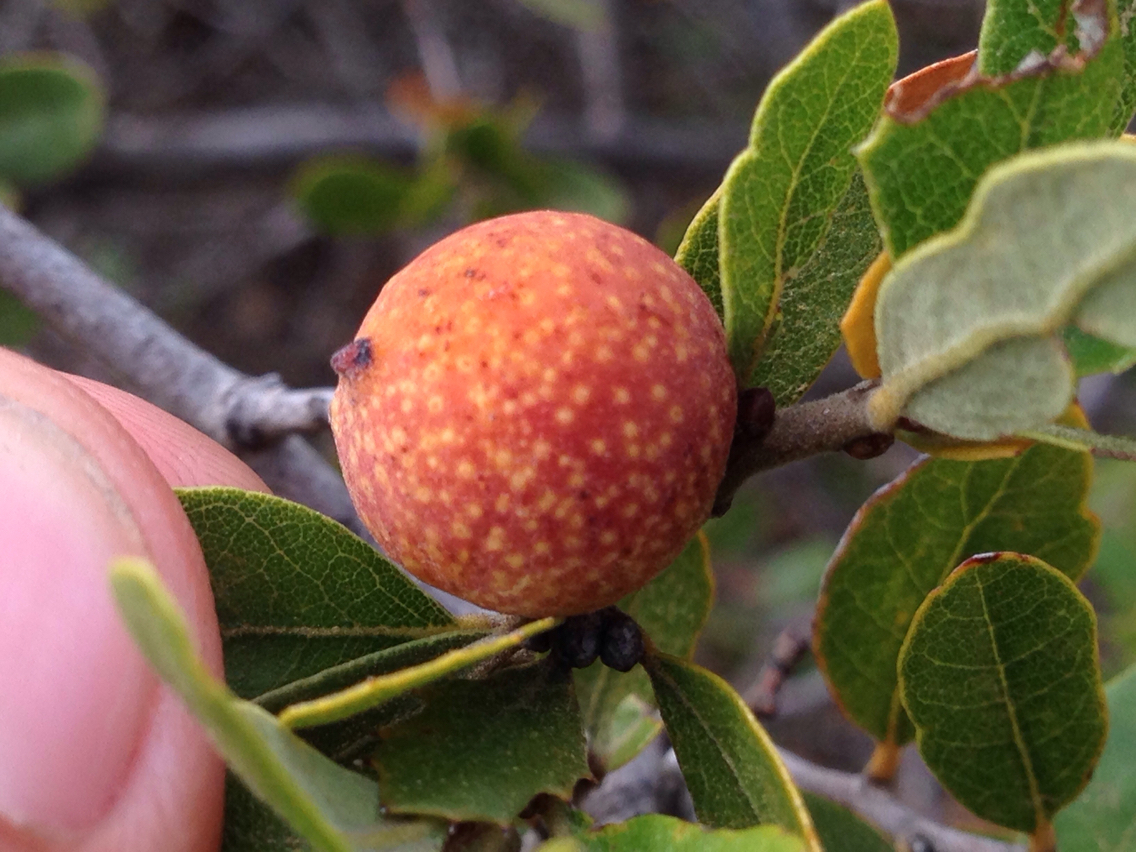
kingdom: Animalia
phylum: Arthropoda
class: Insecta
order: Hymenoptera
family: Cynipidae
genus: Burnettweldia
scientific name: Burnettweldia
